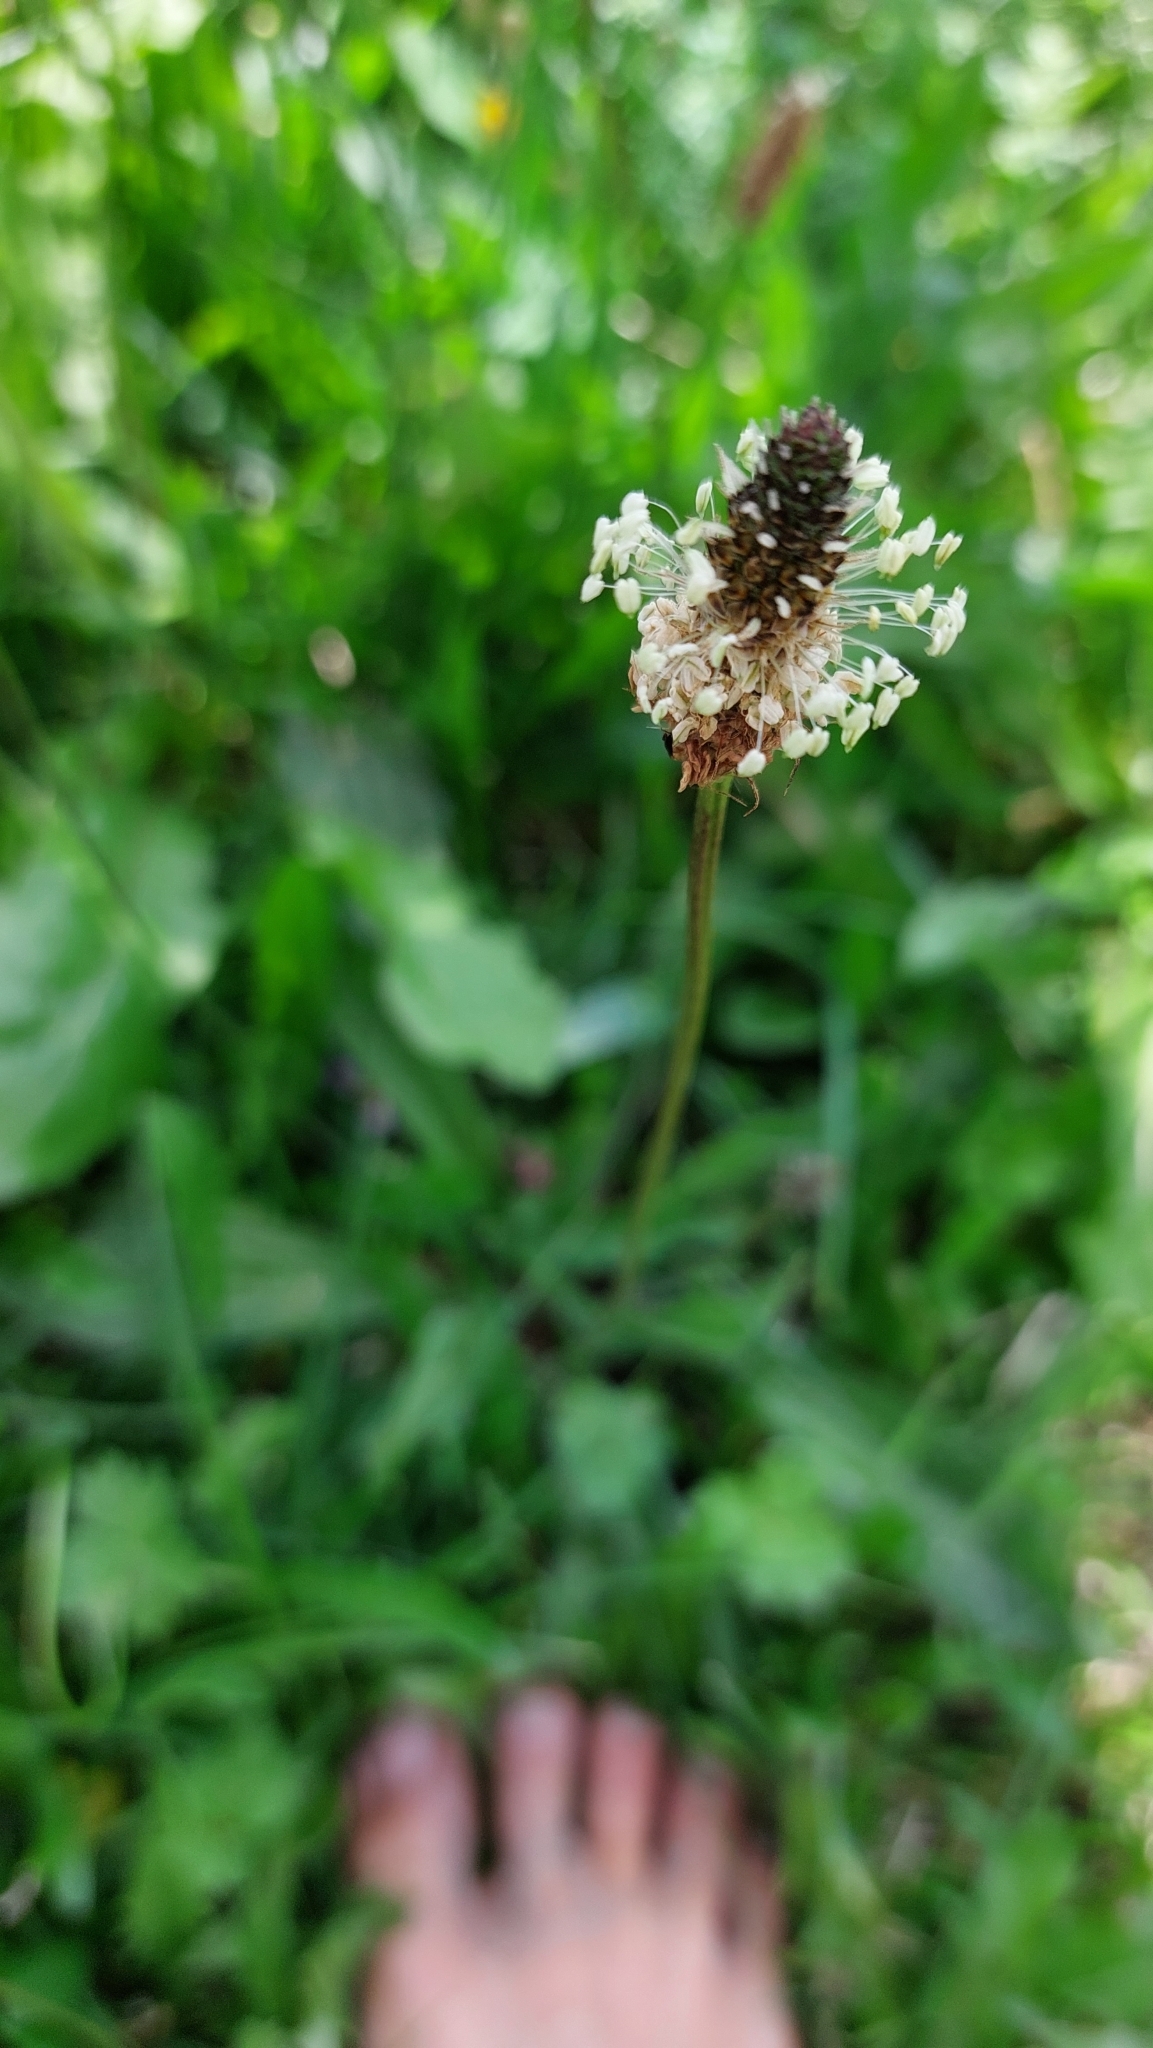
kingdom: Plantae
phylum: Tracheophyta
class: Magnoliopsida
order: Lamiales
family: Plantaginaceae
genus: Plantago
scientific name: Plantago lanceolata
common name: Ribwort plantain
